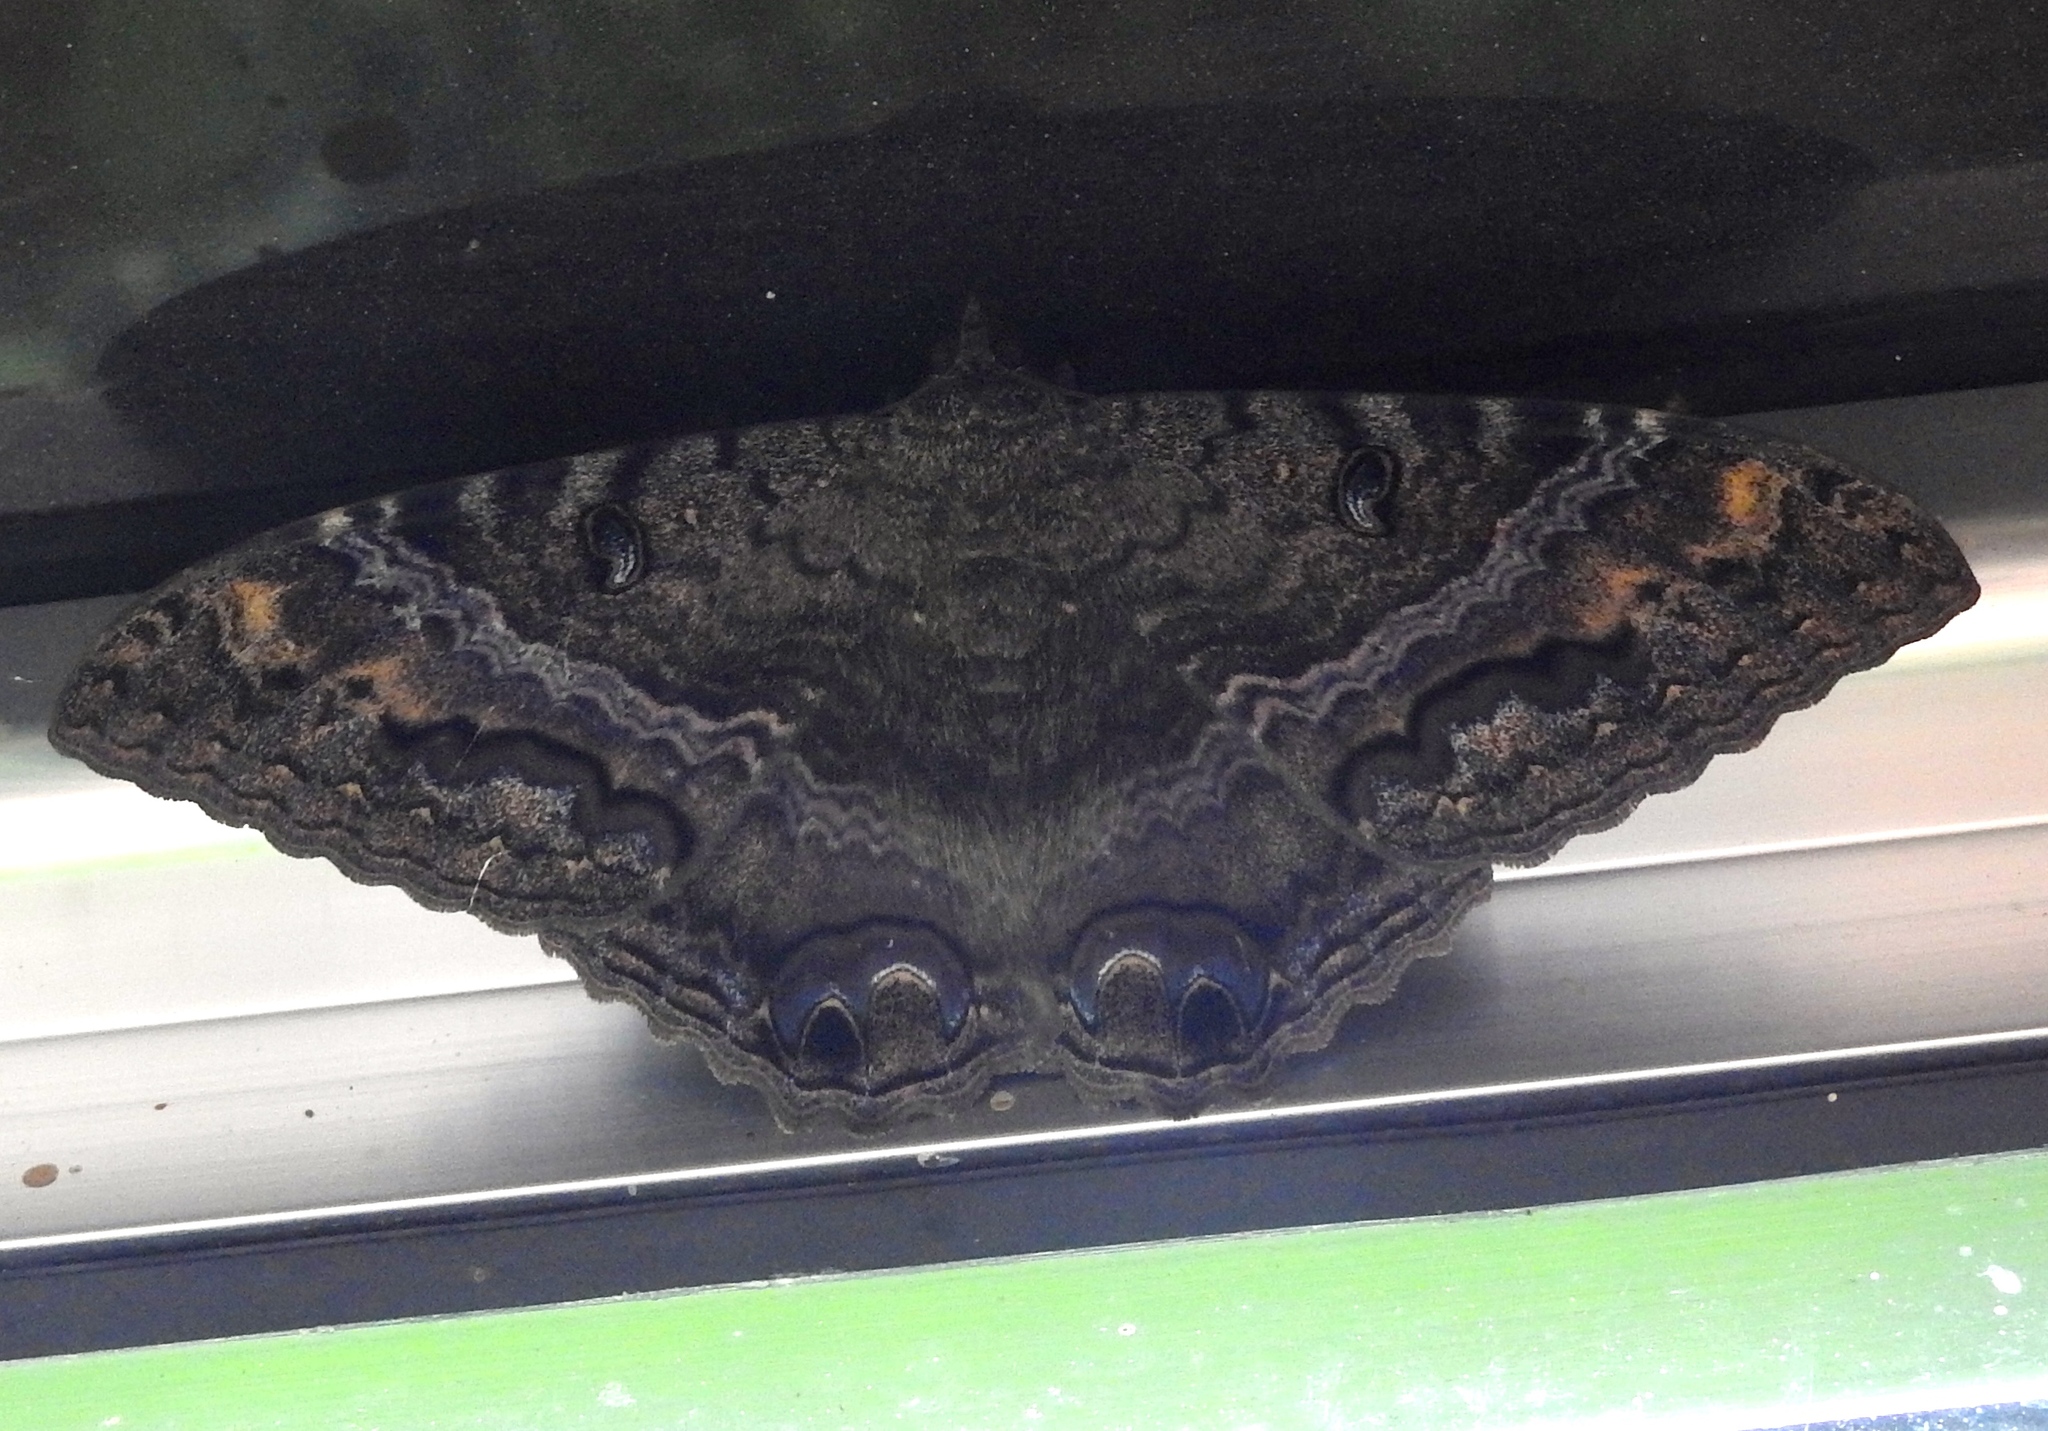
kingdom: Animalia
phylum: Arthropoda
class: Insecta
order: Lepidoptera
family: Erebidae
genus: Ascalapha
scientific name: Ascalapha odorata
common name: Black witch
